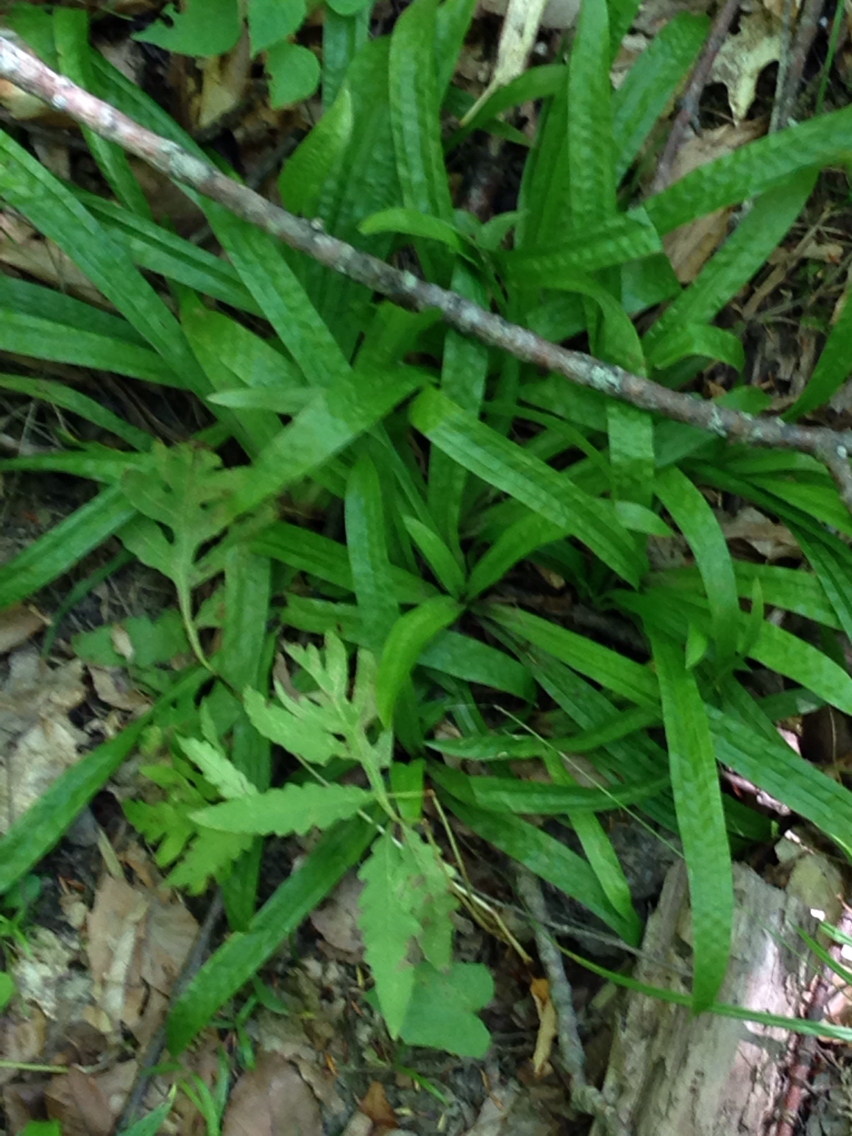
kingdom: Plantae
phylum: Tracheophyta
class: Liliopsida
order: Poales
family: Cyperaceae
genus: Carex
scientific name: Carex plantaginea
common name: Plantain-leaved sedge
